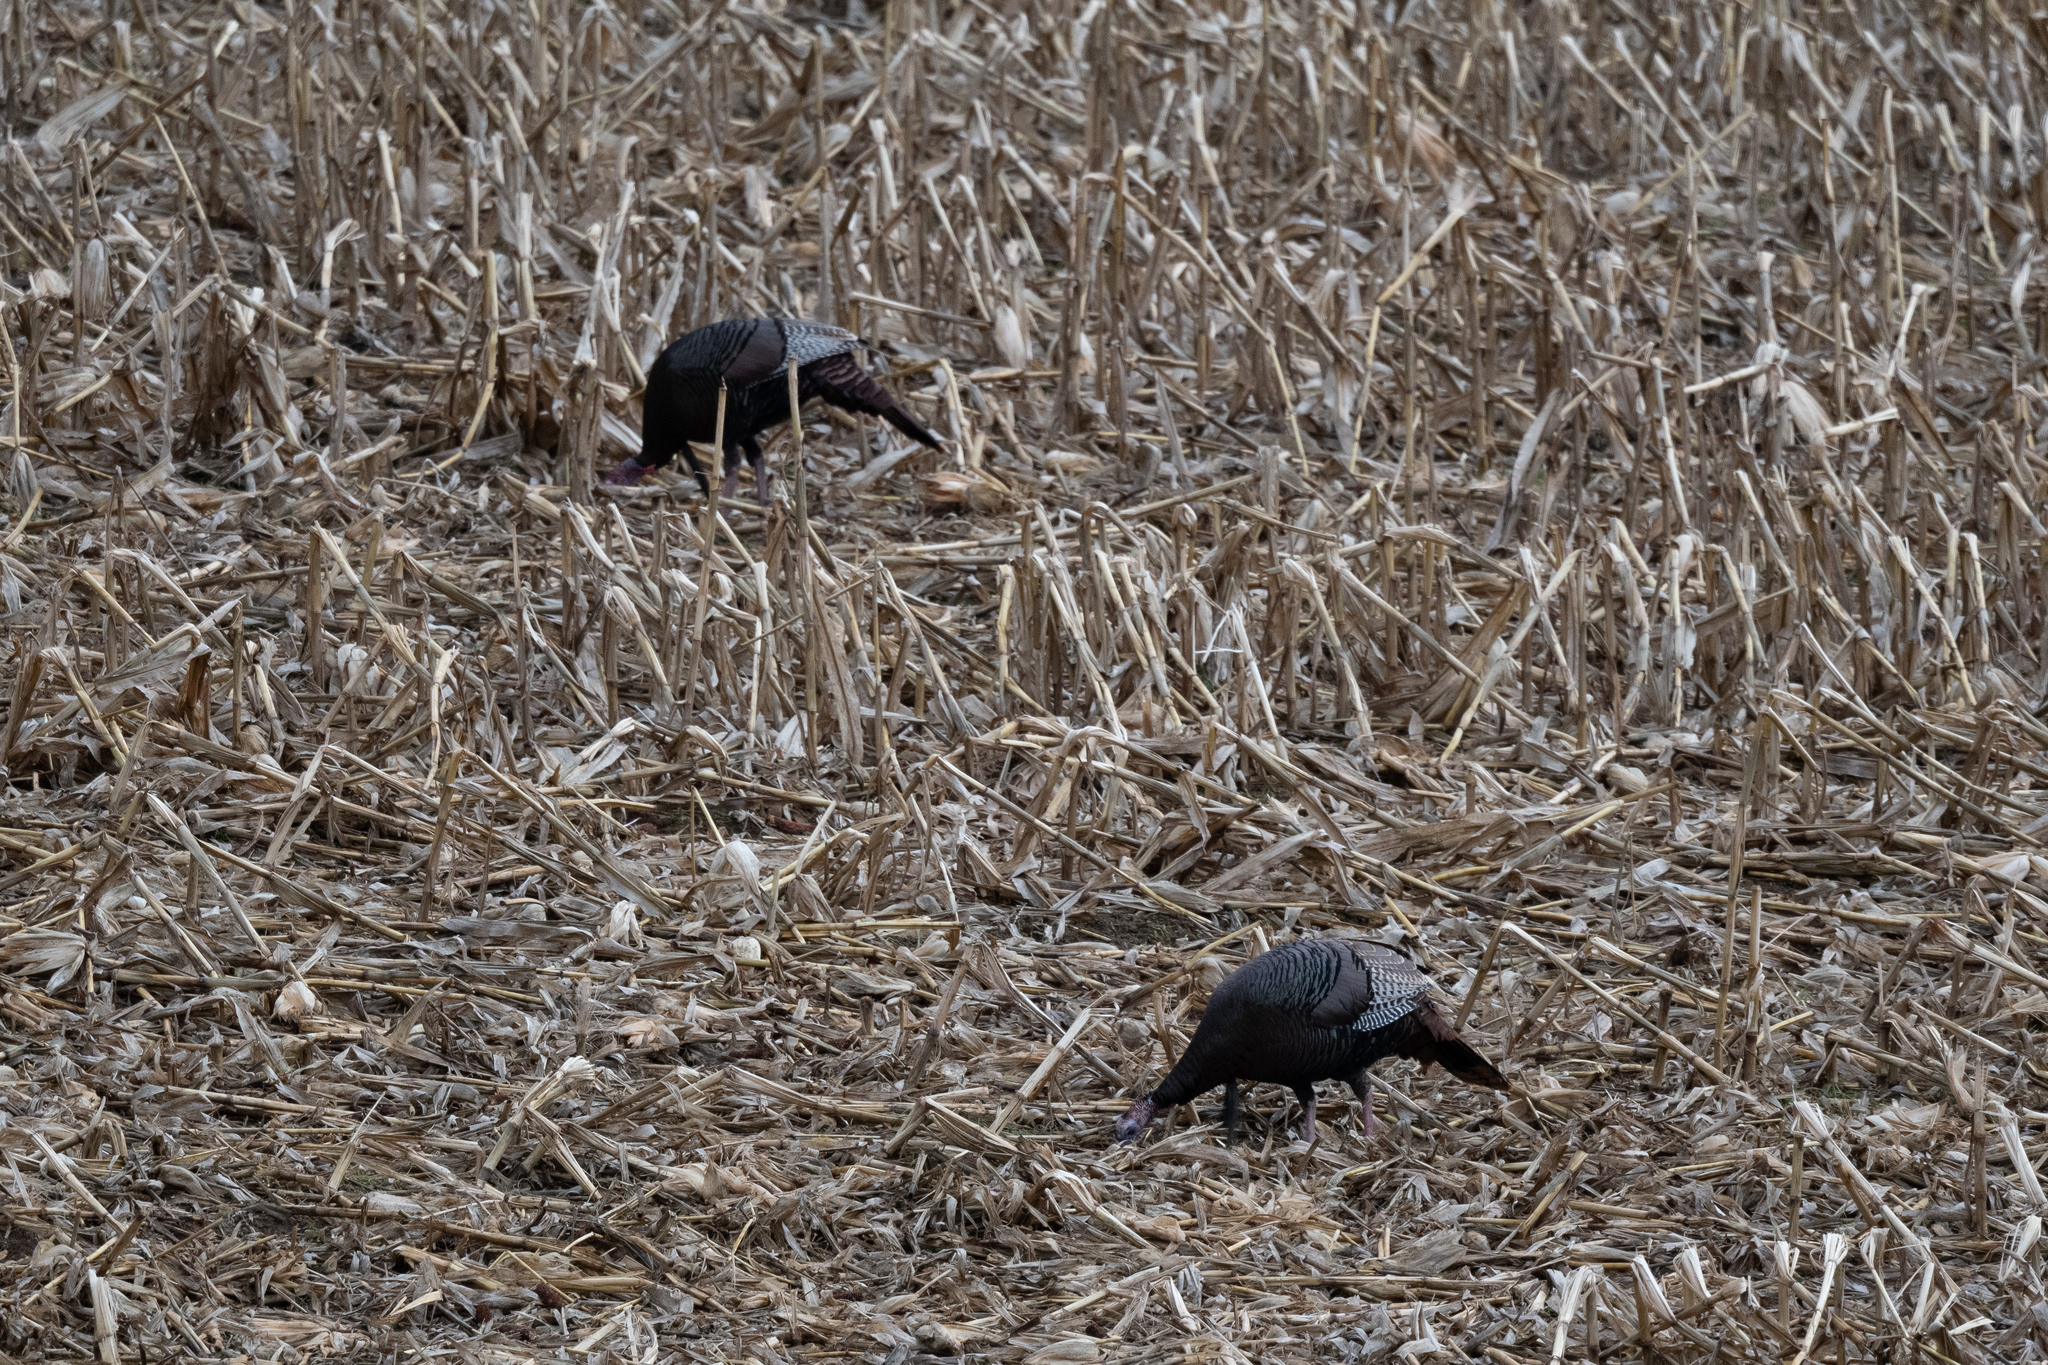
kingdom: Animalia
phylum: Chordata
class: Aves
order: Galliformes
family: Phasianidae
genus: Meleagris
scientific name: Meleagris gallopavo
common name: Wild turkey
